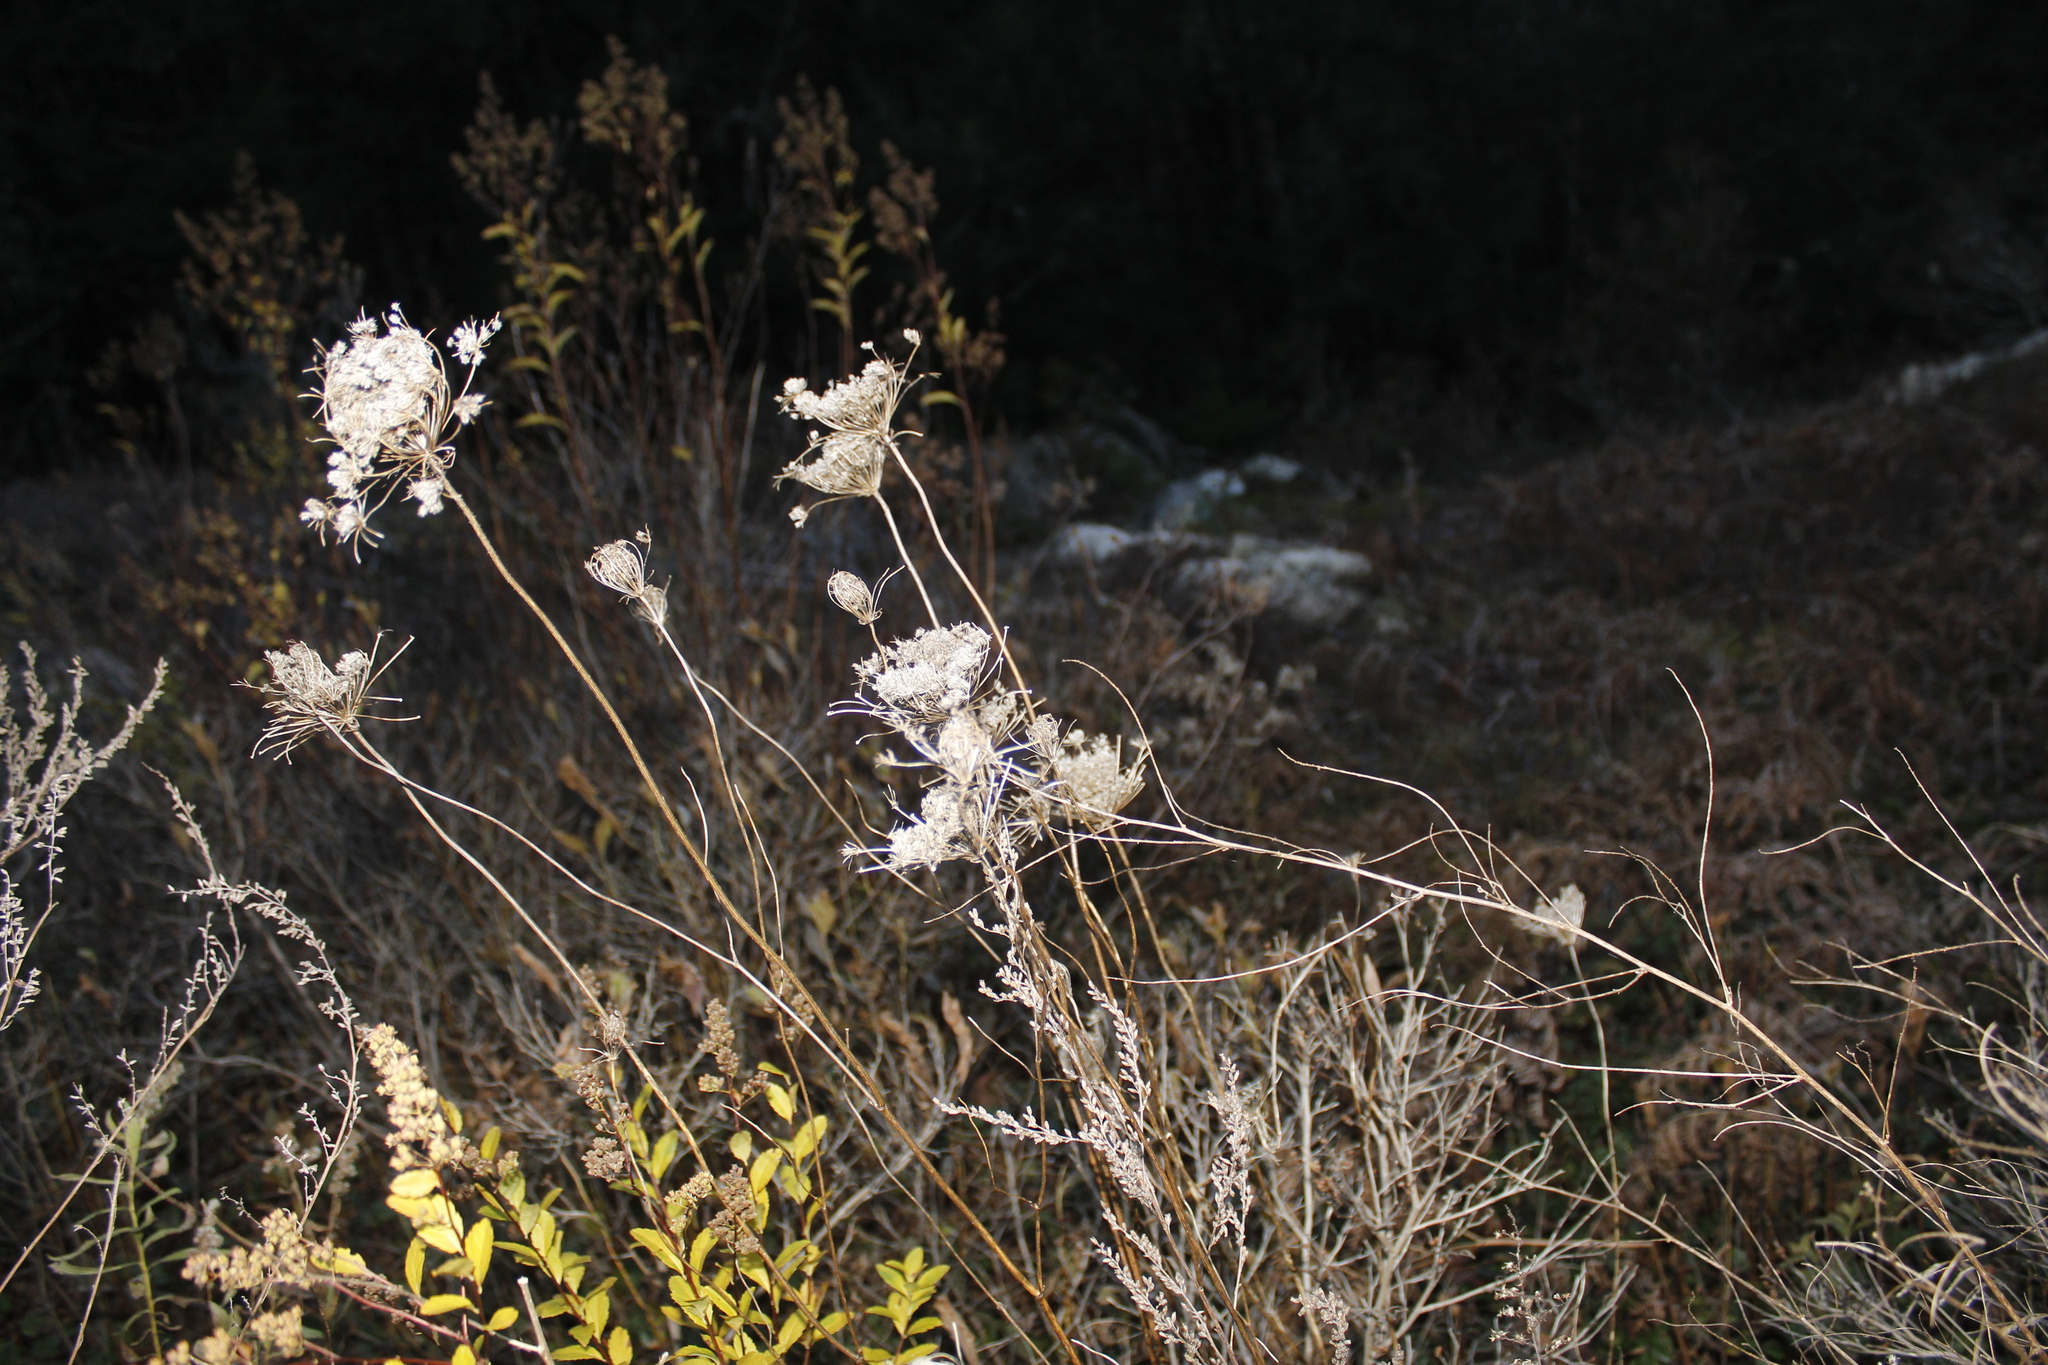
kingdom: Plantae
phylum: Tracheophyta
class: Magnoliopsida
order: Apiales
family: Apiaceae
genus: Daucus
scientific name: Daucus carota
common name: Wild carrot
